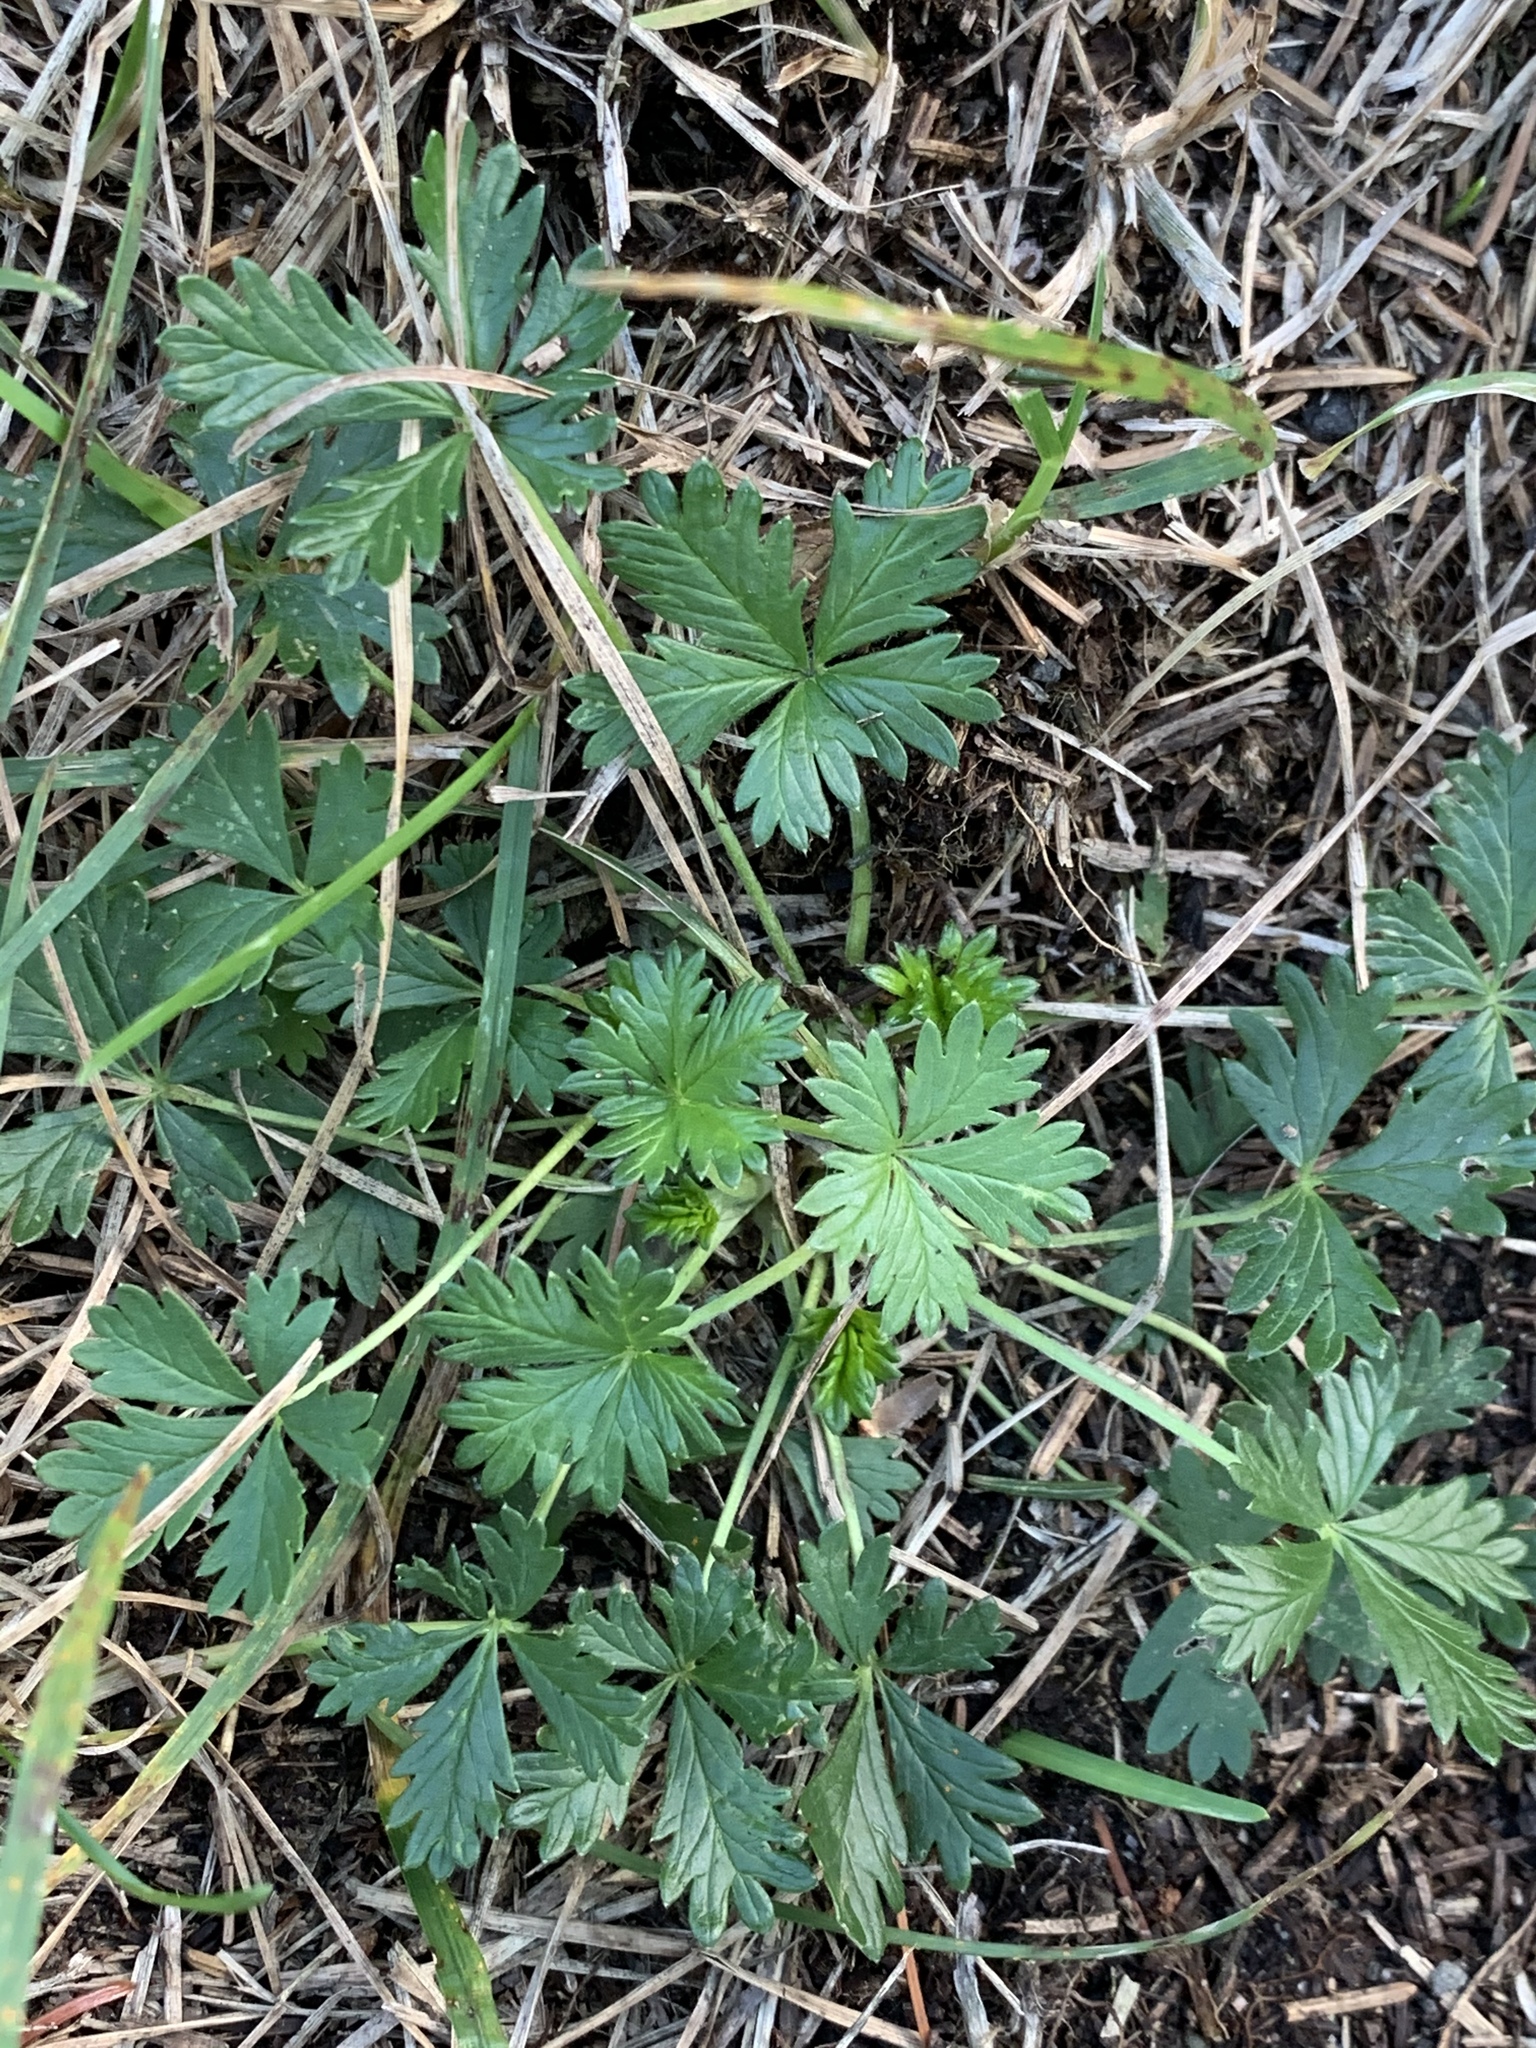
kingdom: Plantae
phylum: Tracheophyta
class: Magnoliopsida
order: Rosales
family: Rosaceae
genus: Potentilla
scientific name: Potentilla argentea
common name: Hoary cinquefoil
